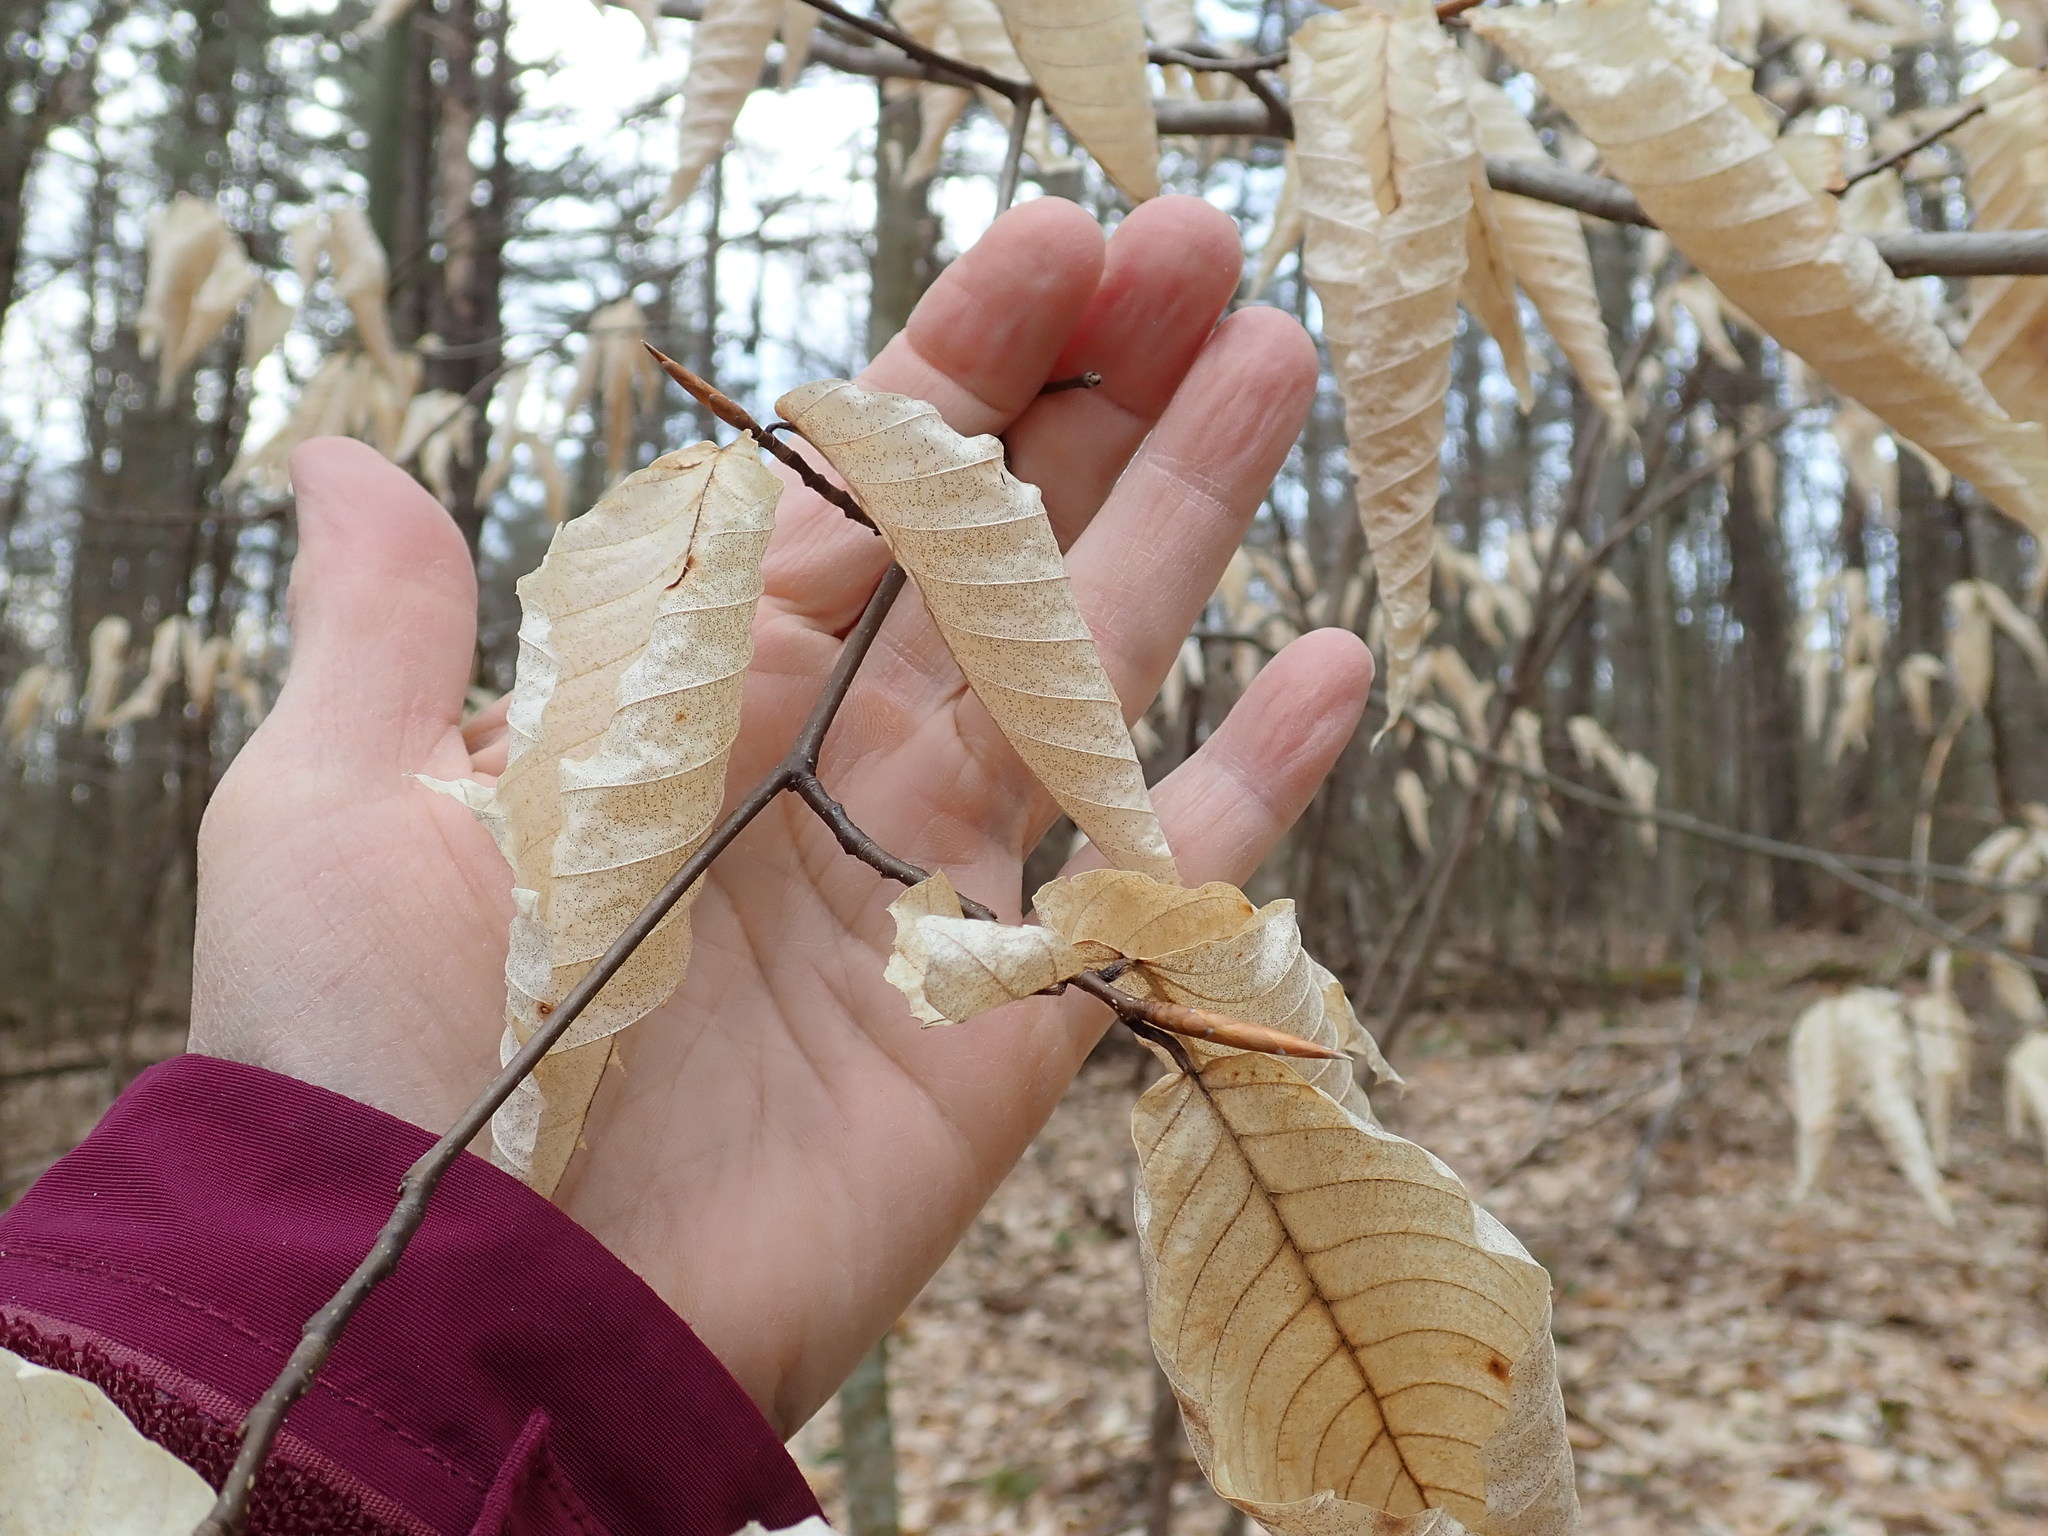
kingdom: Plantae
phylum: Tracheophyta
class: Magnoliopsida
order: Fagales
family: Fagaceae
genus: Fagus
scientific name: Fagus grandifolia
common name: American beech
